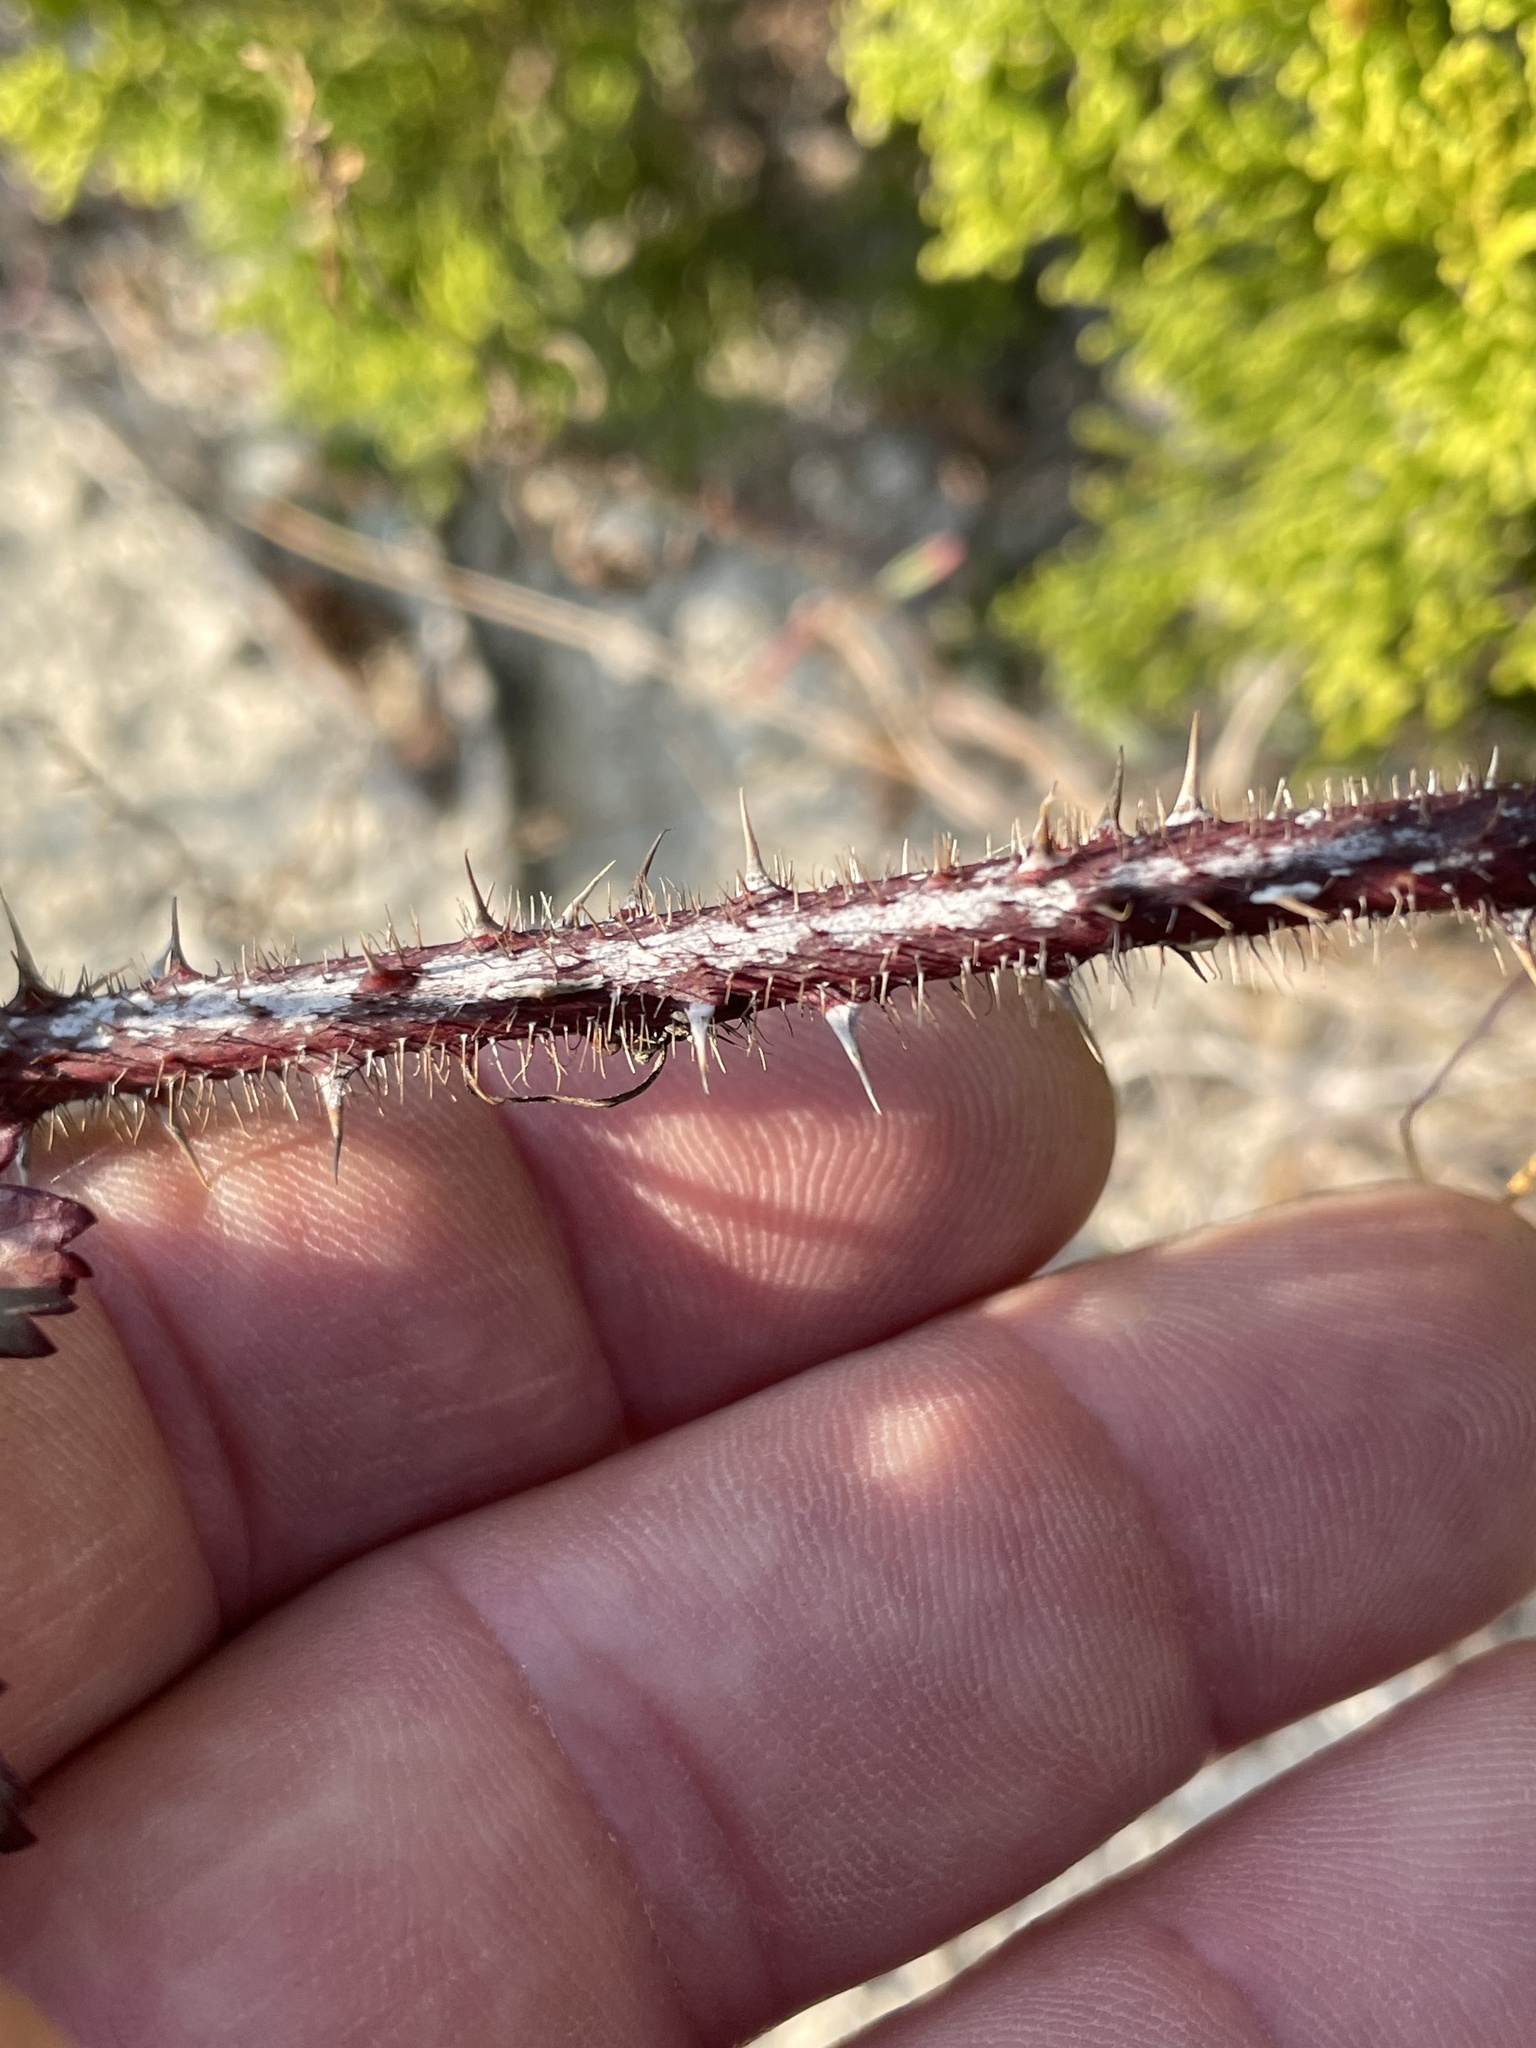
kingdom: Plantae
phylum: Tracheophyta
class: Magnoliopsida
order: Rosales
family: Rosaceae
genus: Rubus
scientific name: Rubus trivialis
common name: Southern dewberry
